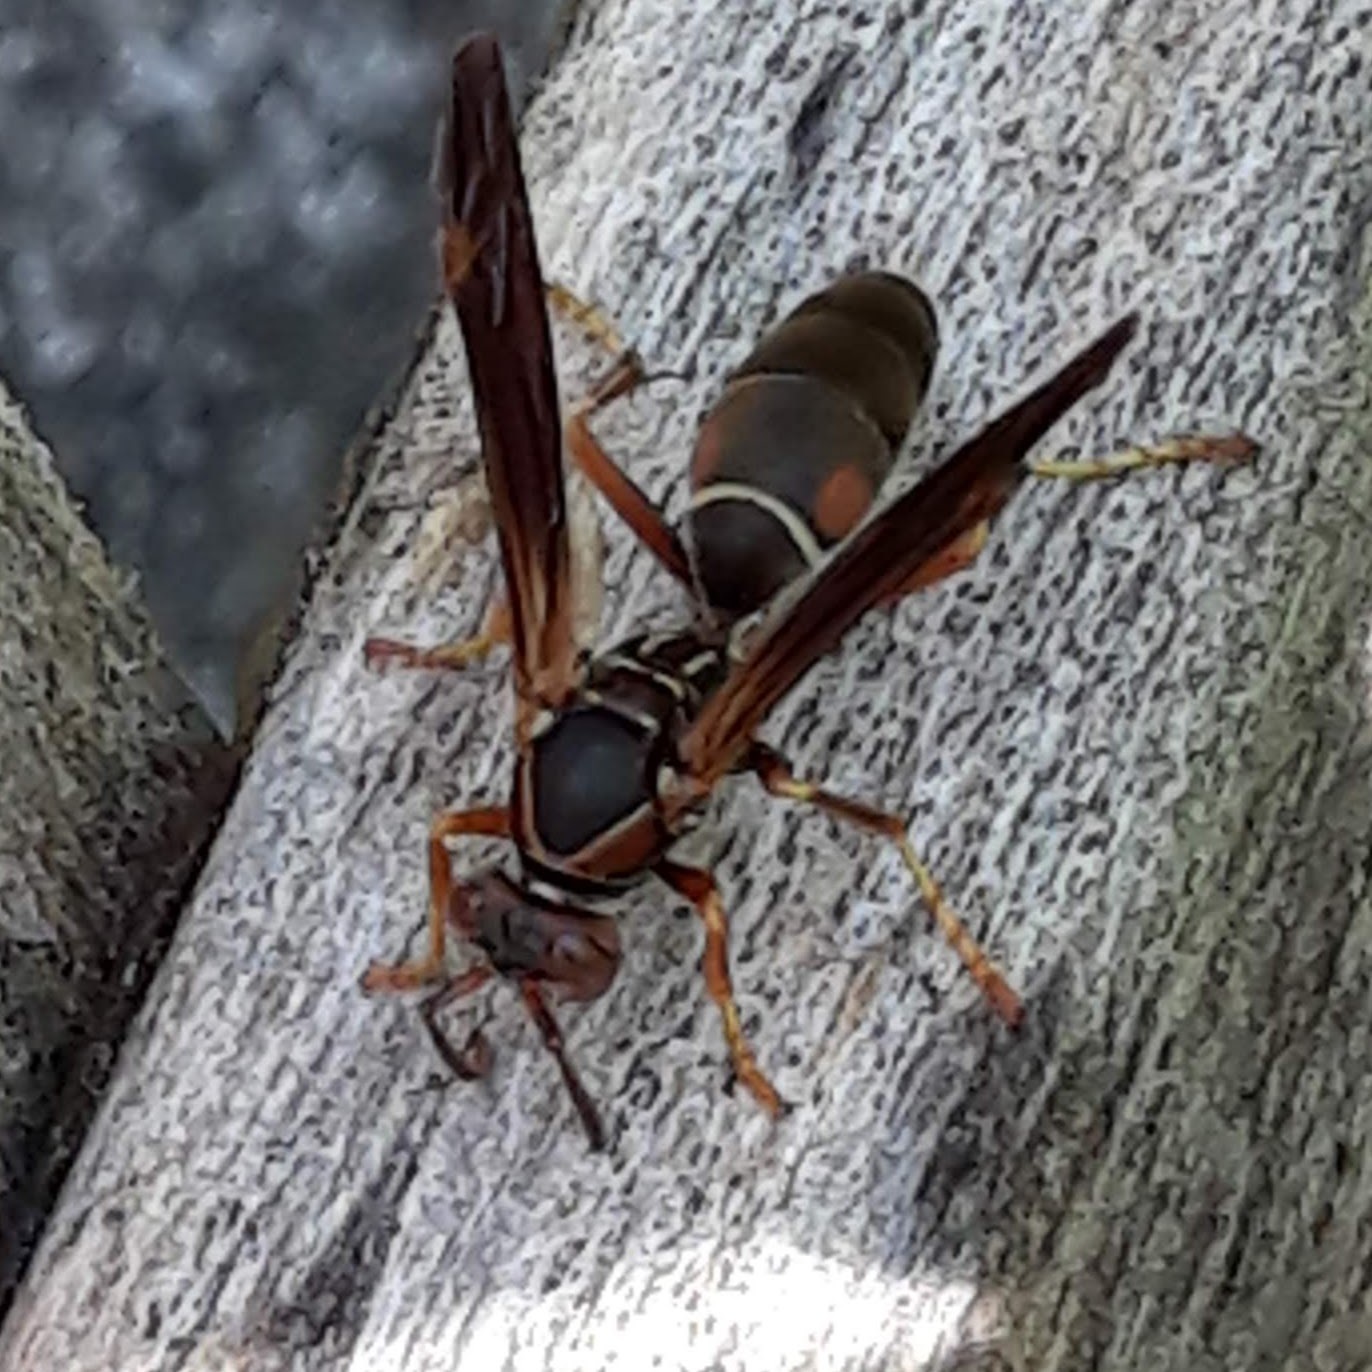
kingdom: Animalia
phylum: Arthropoda
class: Insecta
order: Hymenoptera
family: Eumenidae
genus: Polistes
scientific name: Polistes fuscatus
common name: Dark paper wasp
